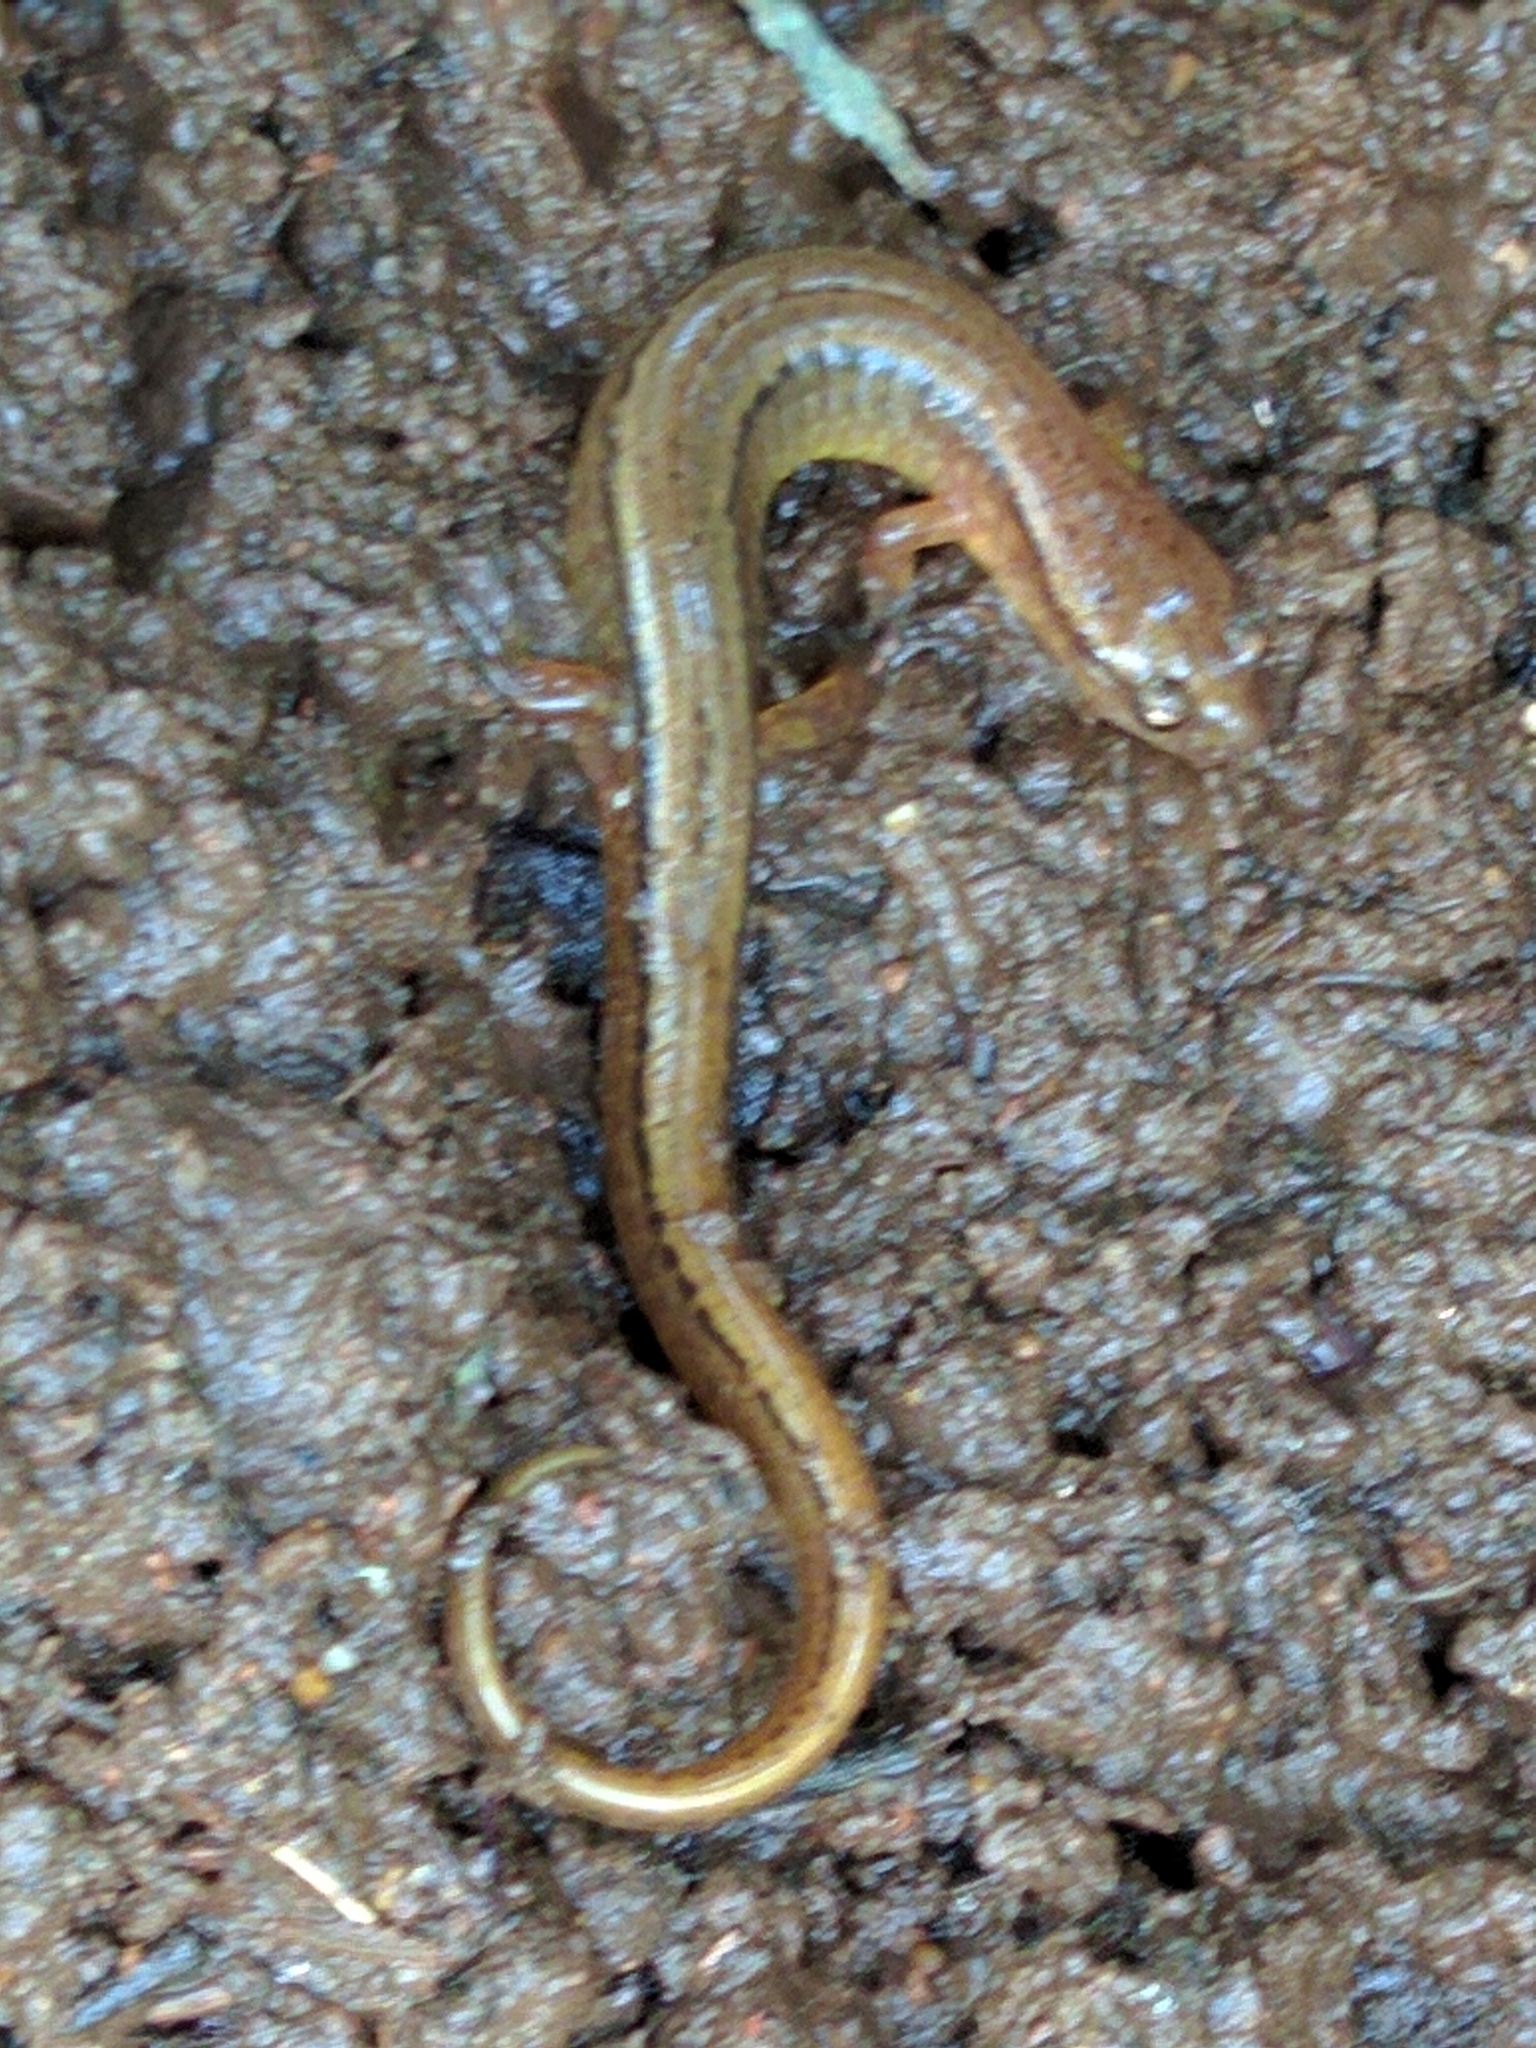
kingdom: Animalia
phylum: Chordata
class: Amphibia
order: Caudata
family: Plethodontidae
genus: Eurycea
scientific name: Eurycea bislineata
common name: Northern two-lined salamander
